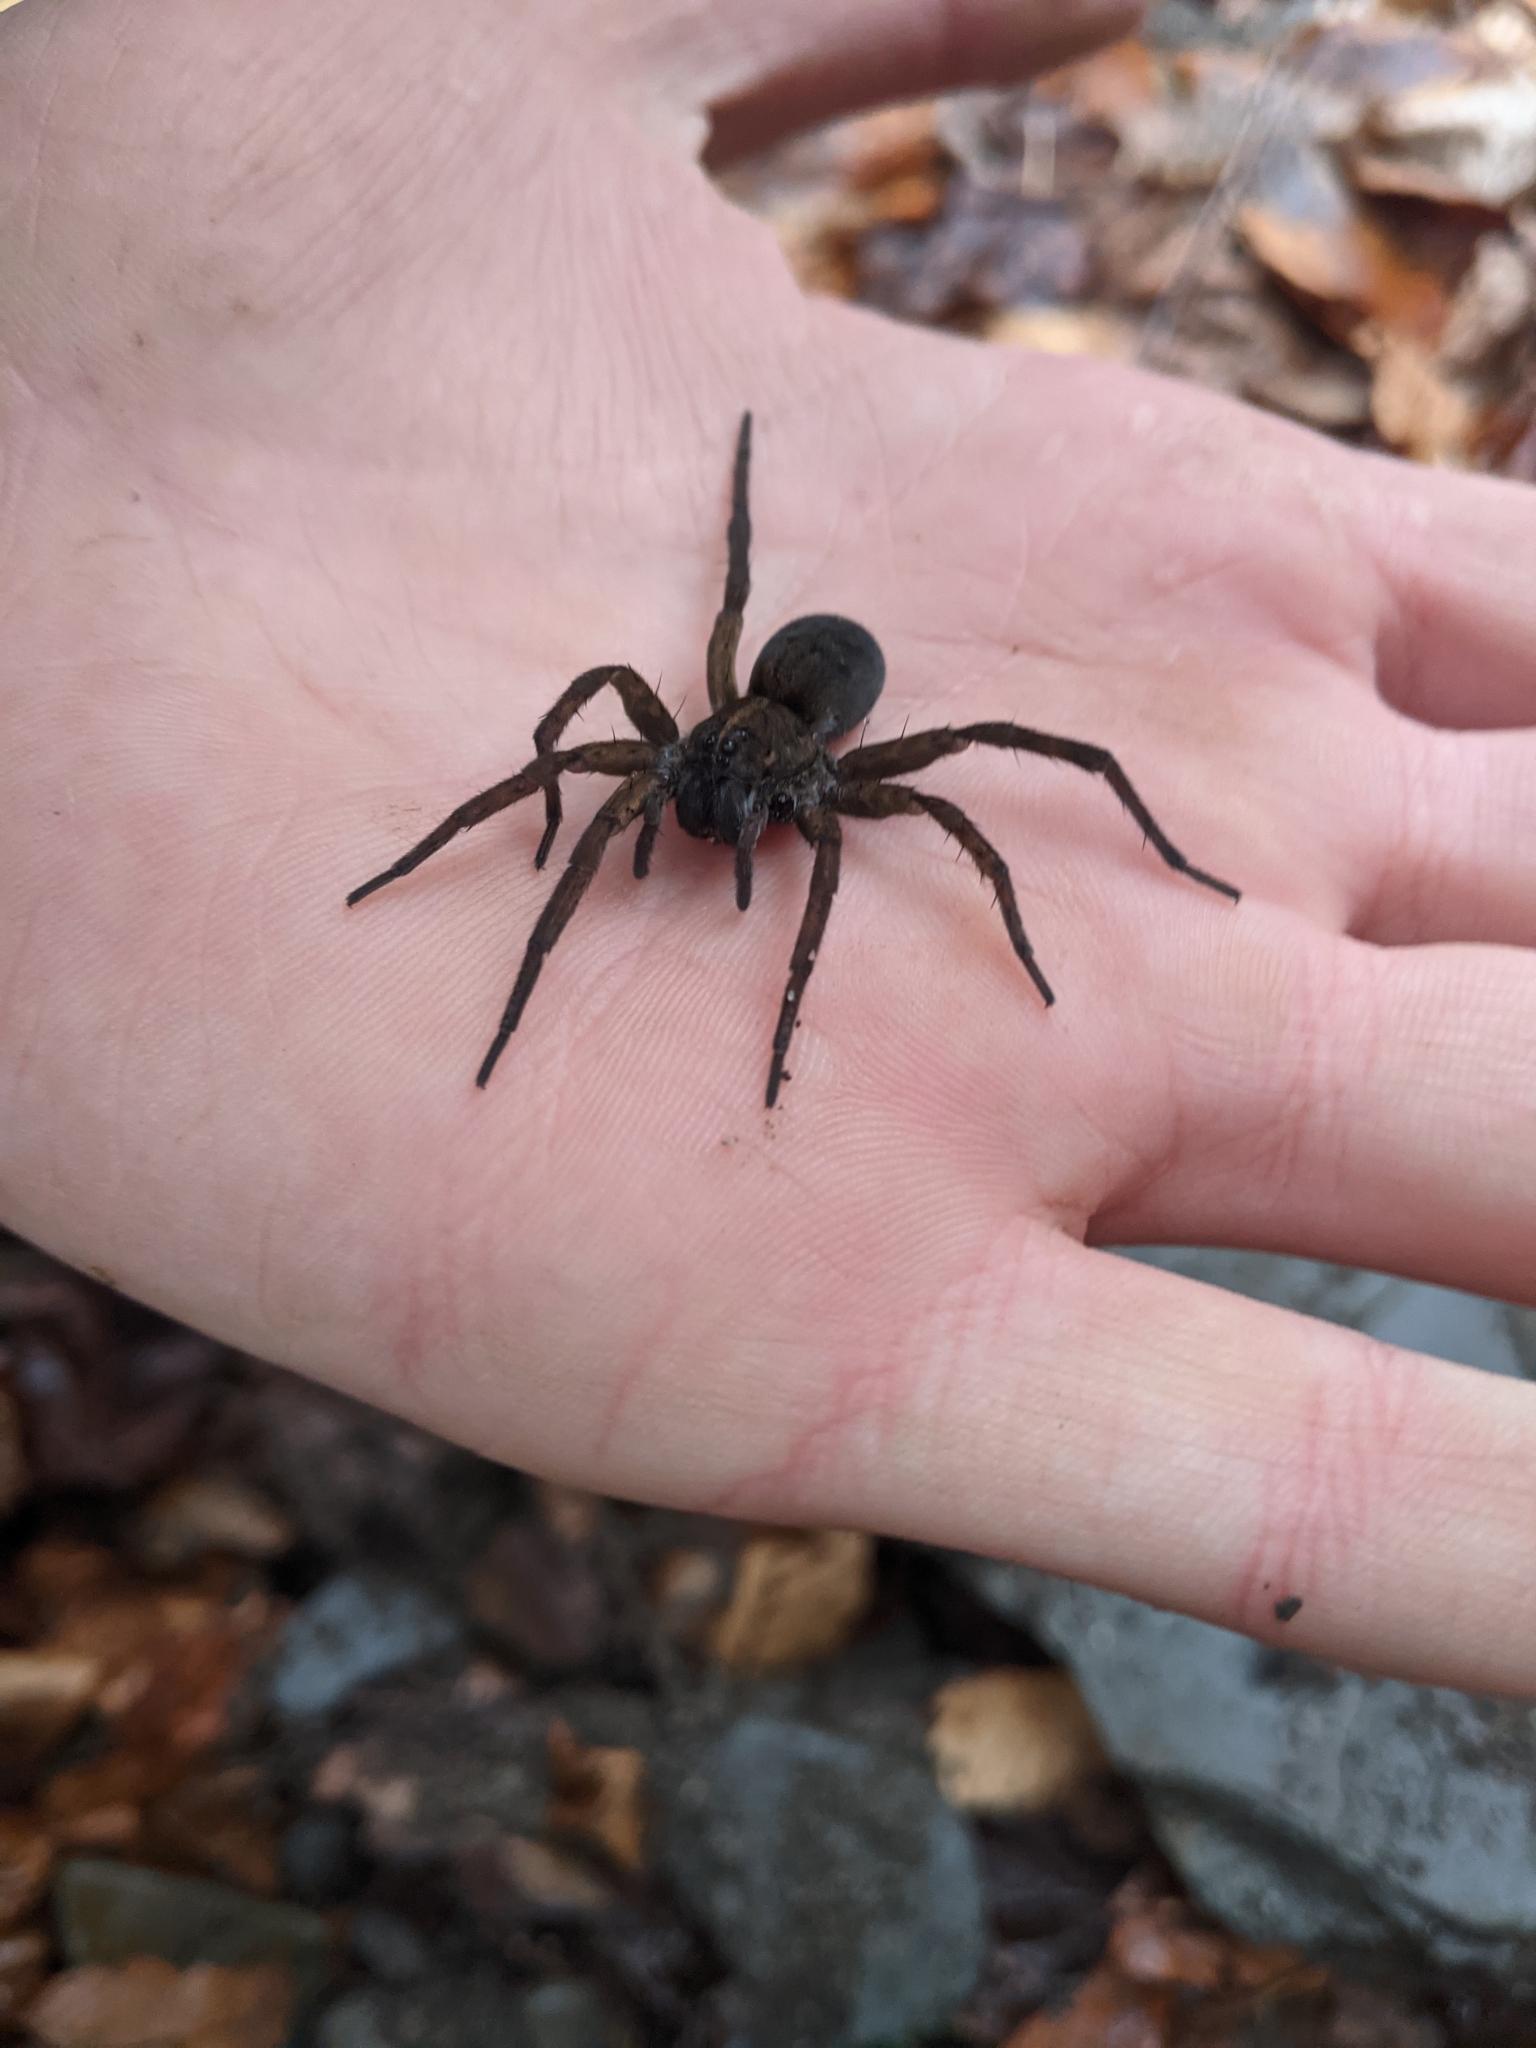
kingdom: Animalia
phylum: Arthropoda
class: Arachnida
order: Araneae
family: Lycosidae
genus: Tigrosa
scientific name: Tigrosa helluo
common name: Wetland giant wolf spider
